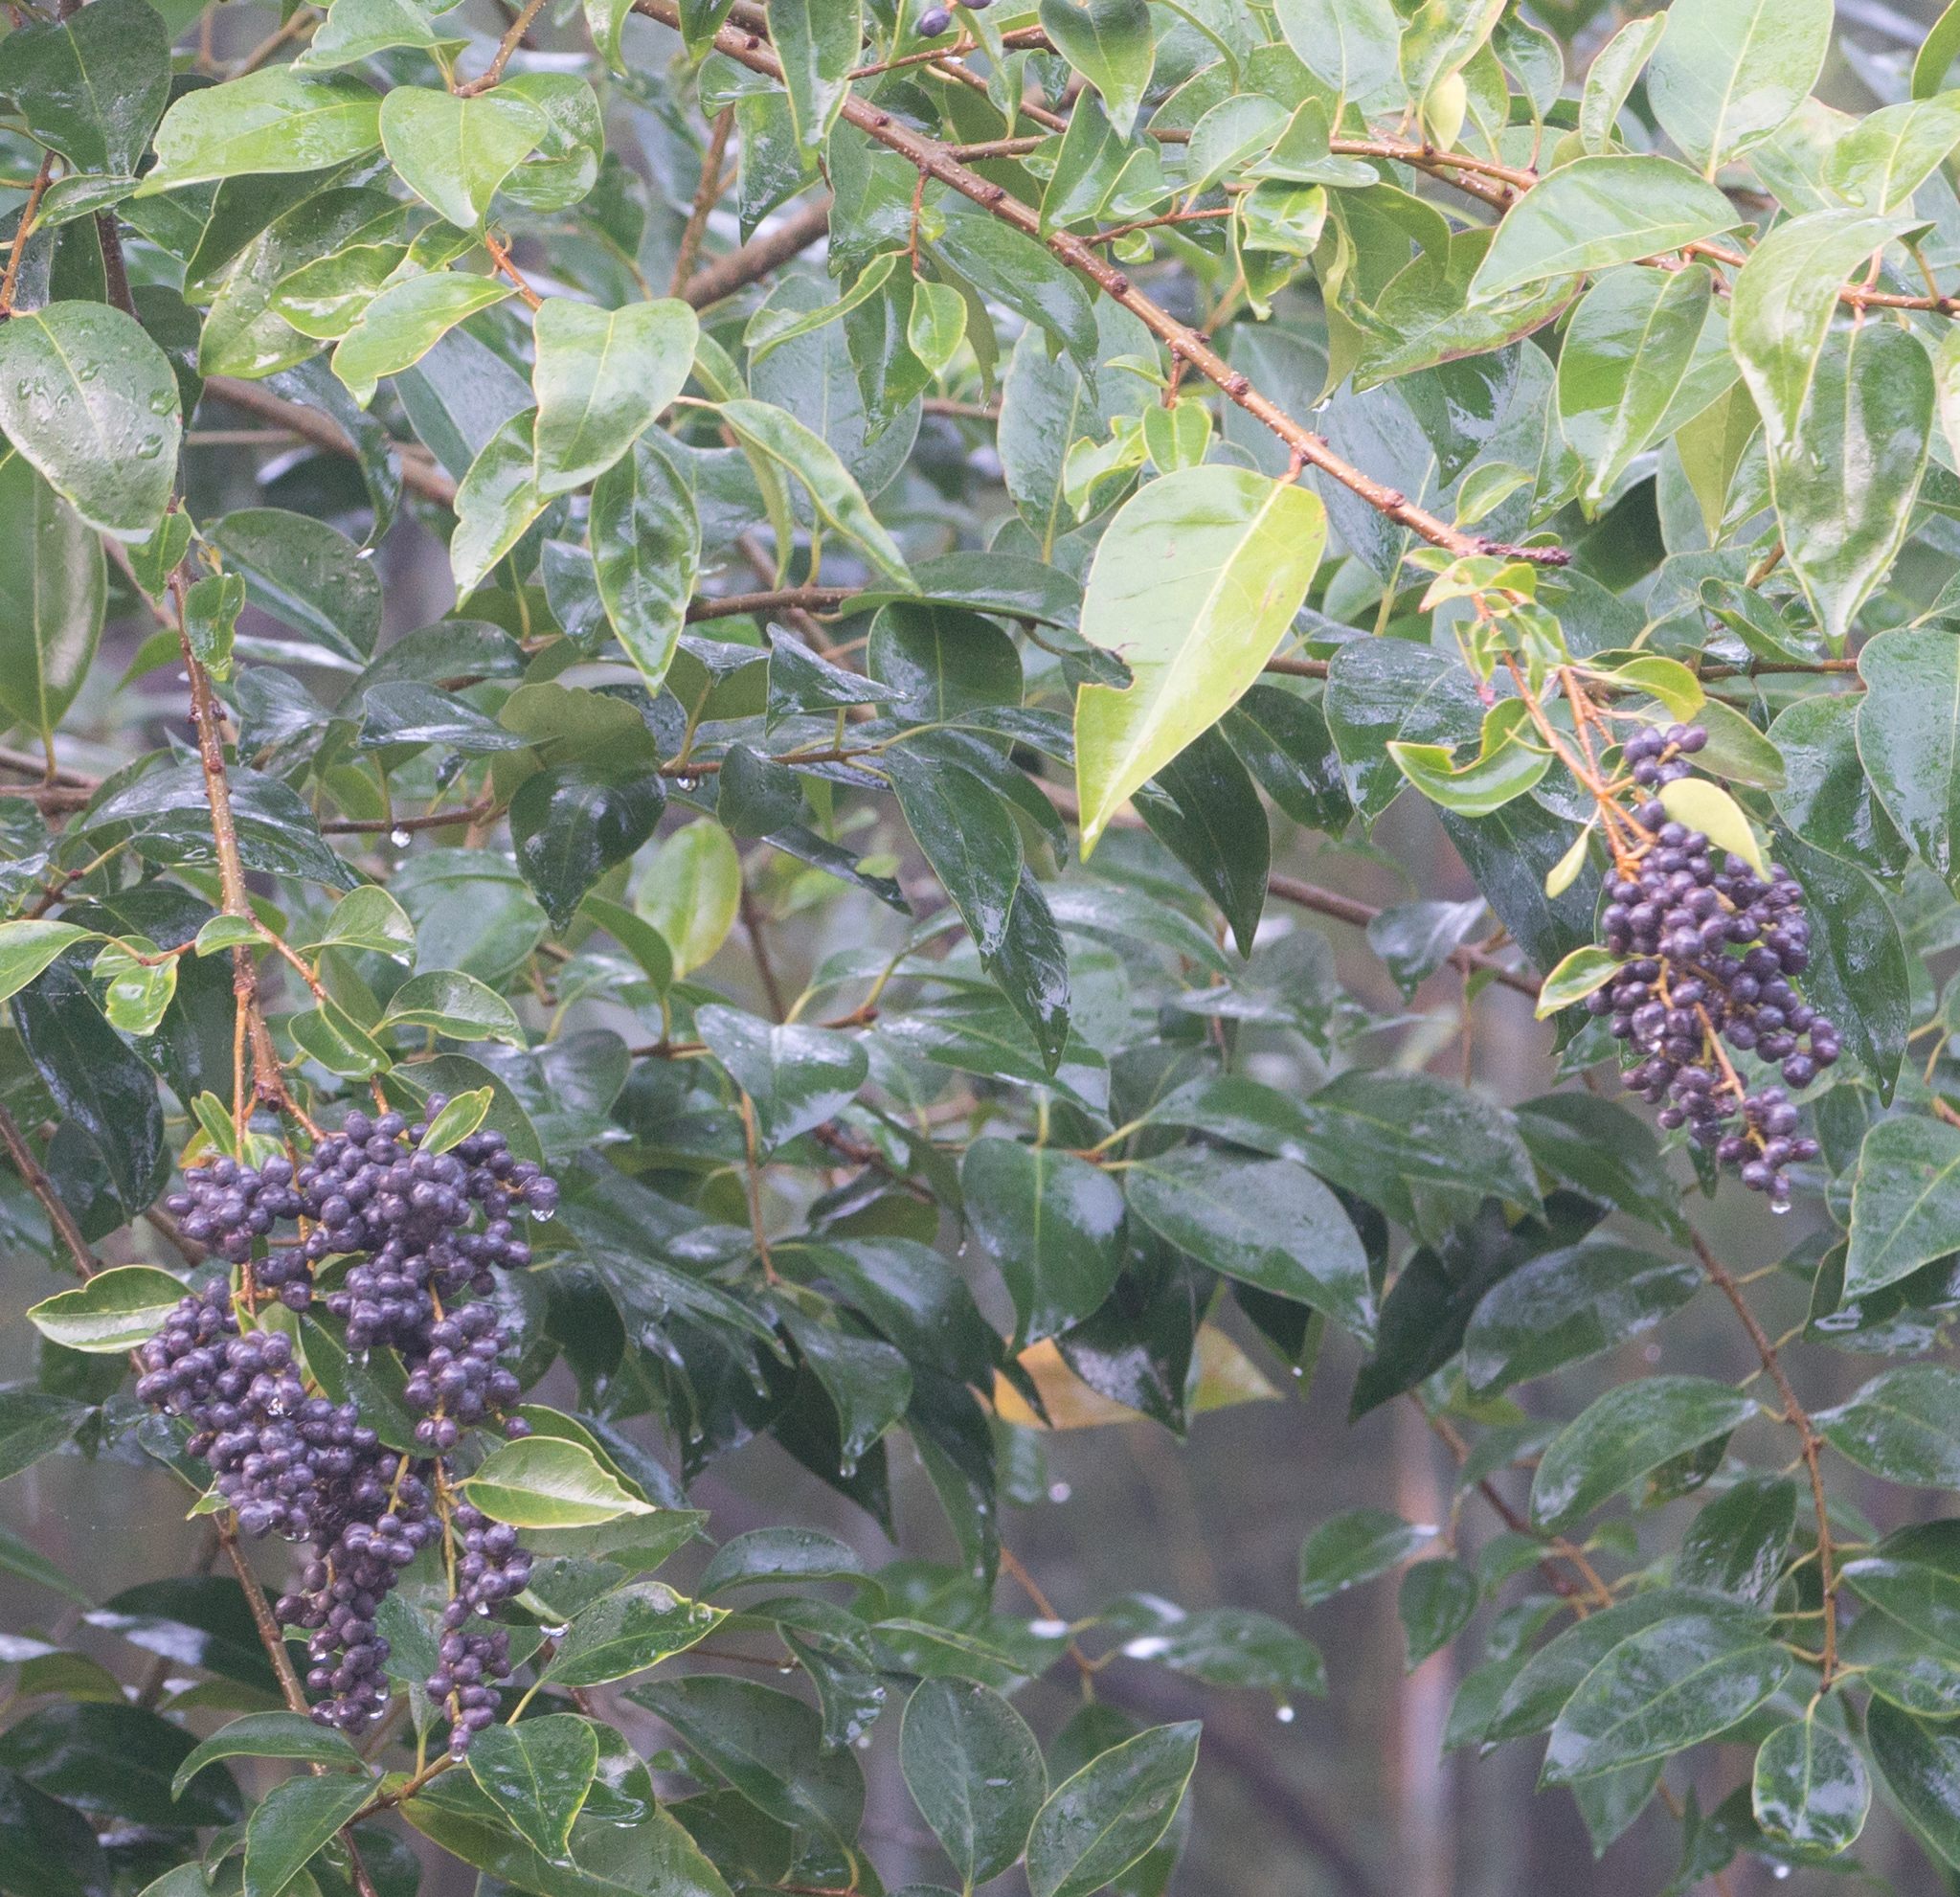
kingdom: Plantae
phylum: Tracheophyta
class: Magnoliopsida
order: Lamiales
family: Oleaceae
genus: Ligustrum
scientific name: Ligustrum lucidum
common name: Glossy privet
